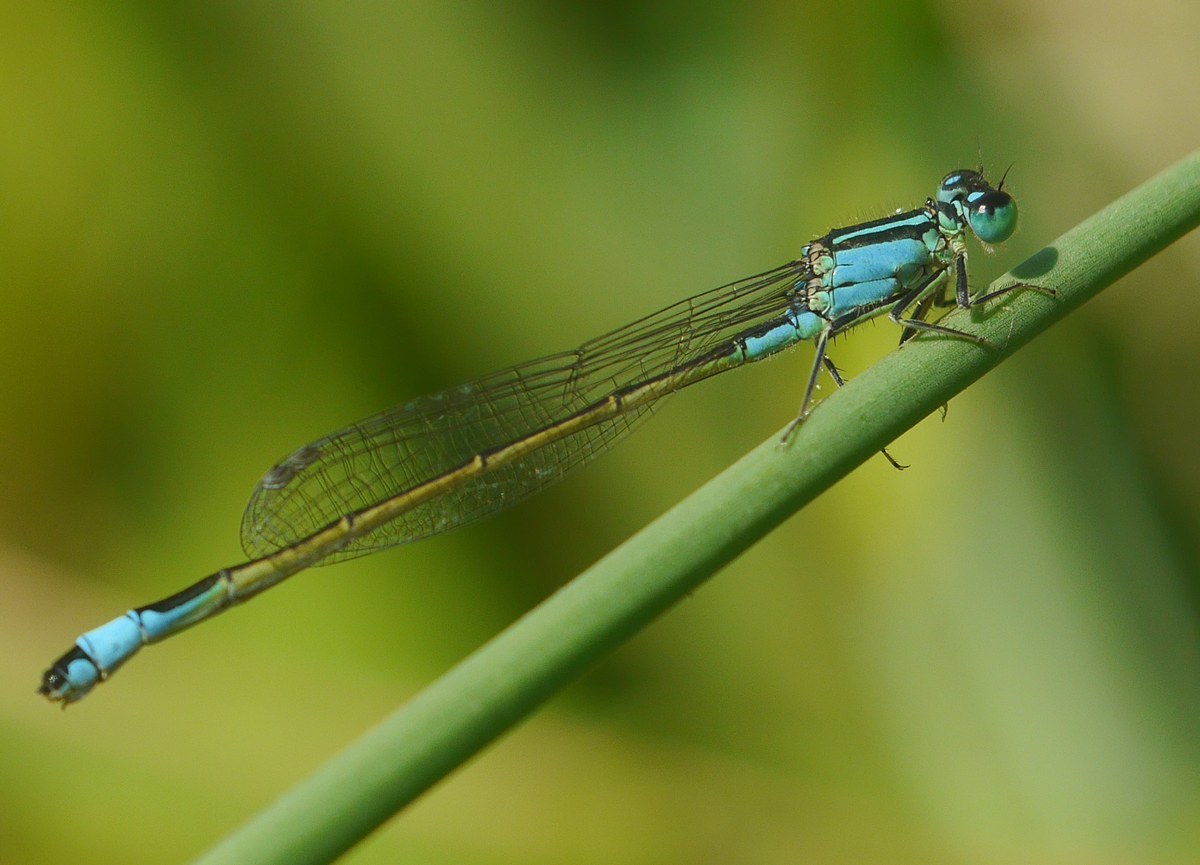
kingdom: Animalia
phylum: Arthropoda
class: Insecta
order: Odonata
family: Coenagrionidae
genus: Ischnura
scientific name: Ischnura elegans
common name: Blue-tailed damselfly
